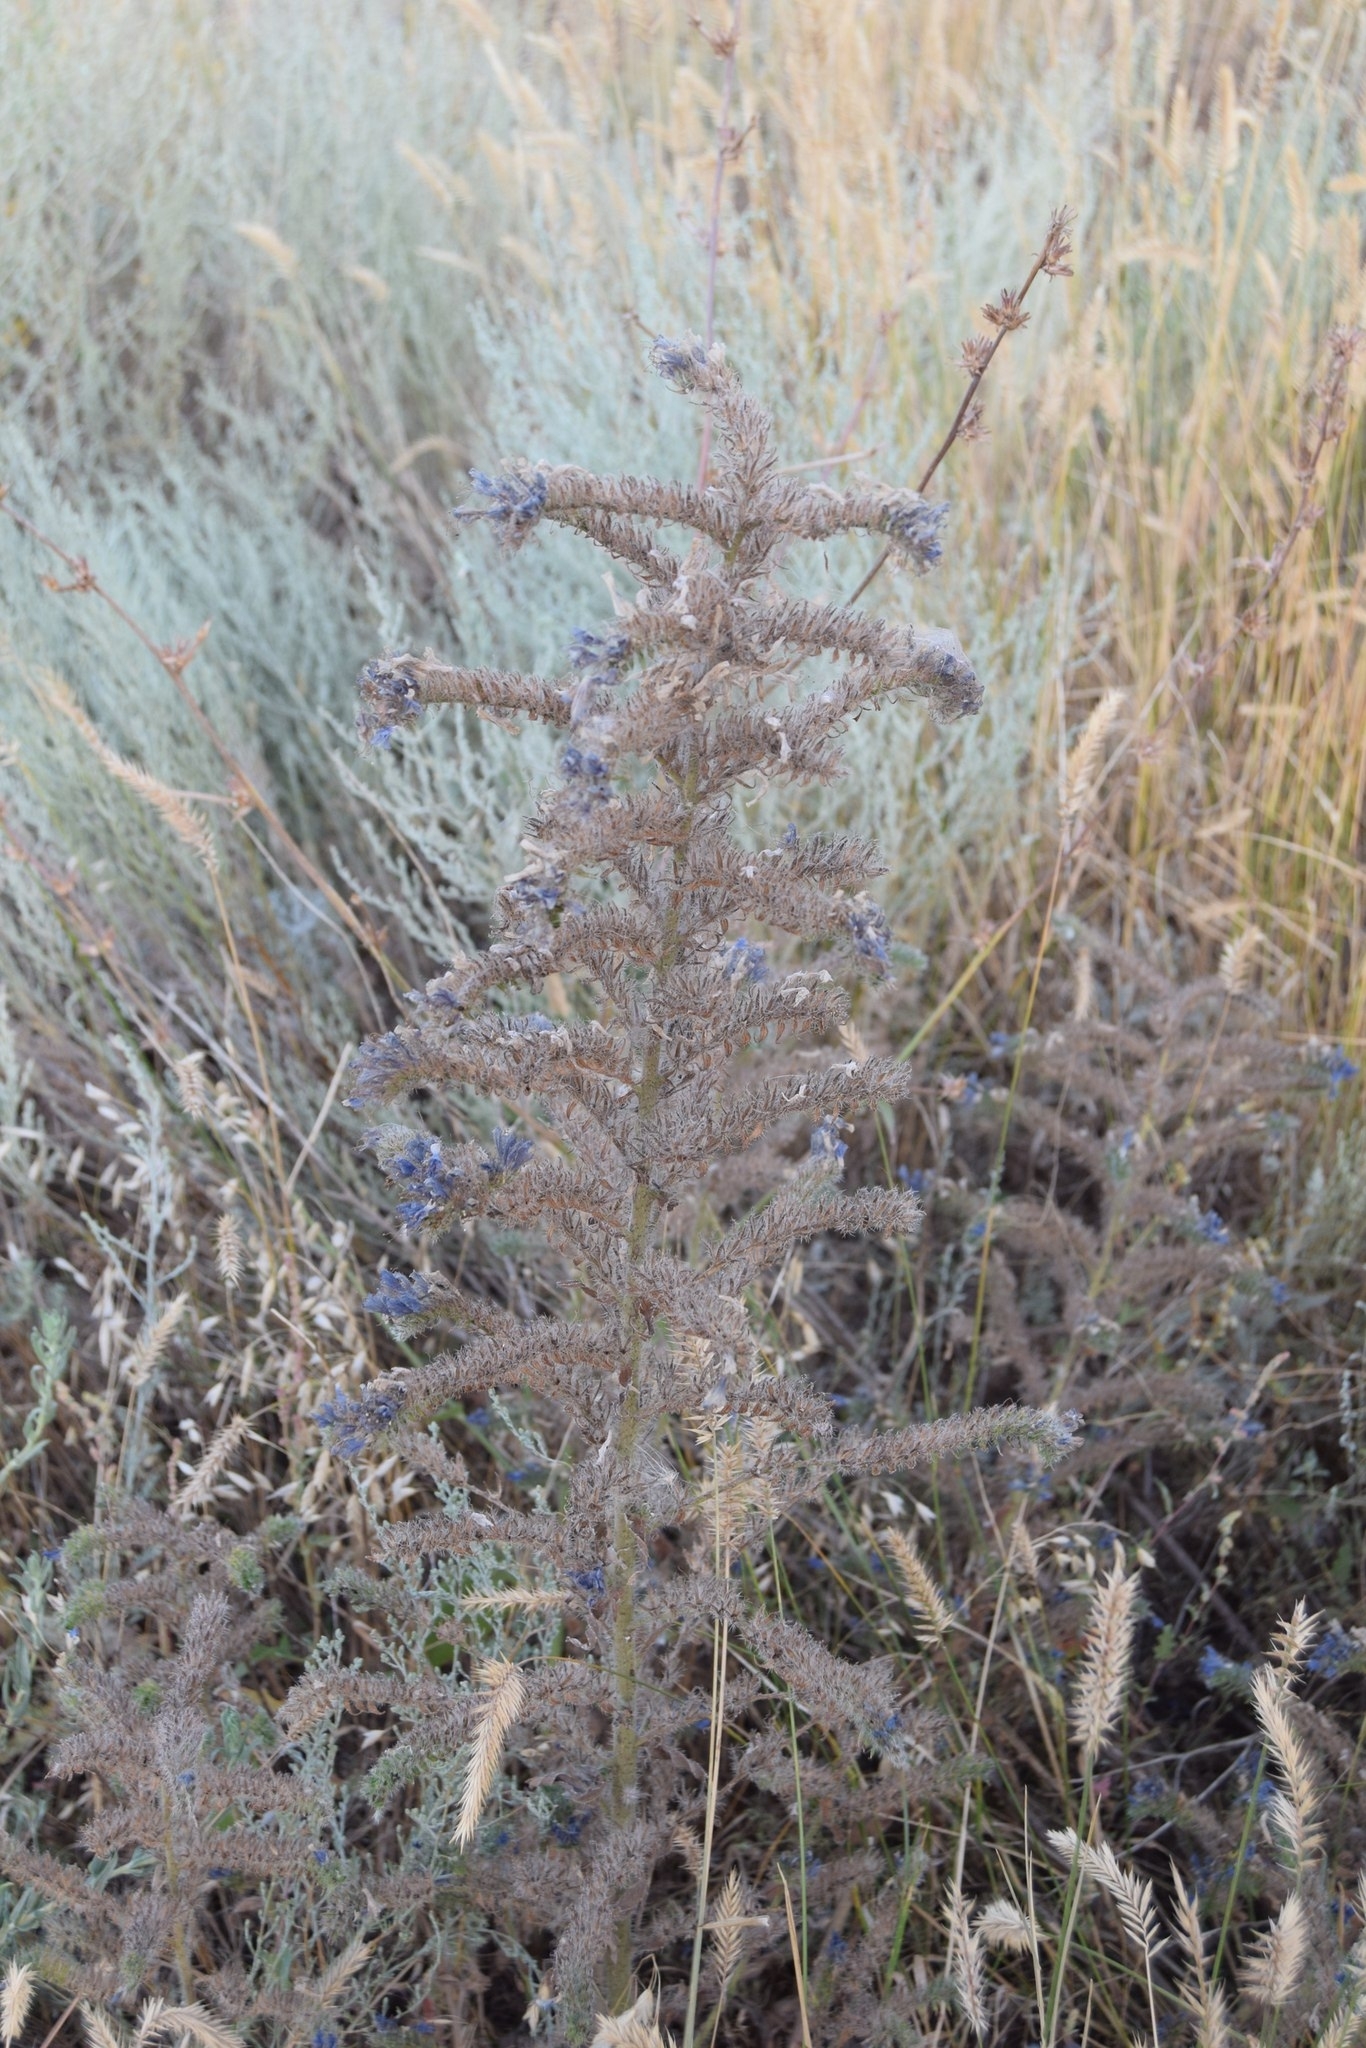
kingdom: Plantae
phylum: Tracheophyta
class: Magnoliopsida
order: Boraginales
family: Boraginaceae
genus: Echium
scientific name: Echium vulgare
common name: Common viper's bugloss
